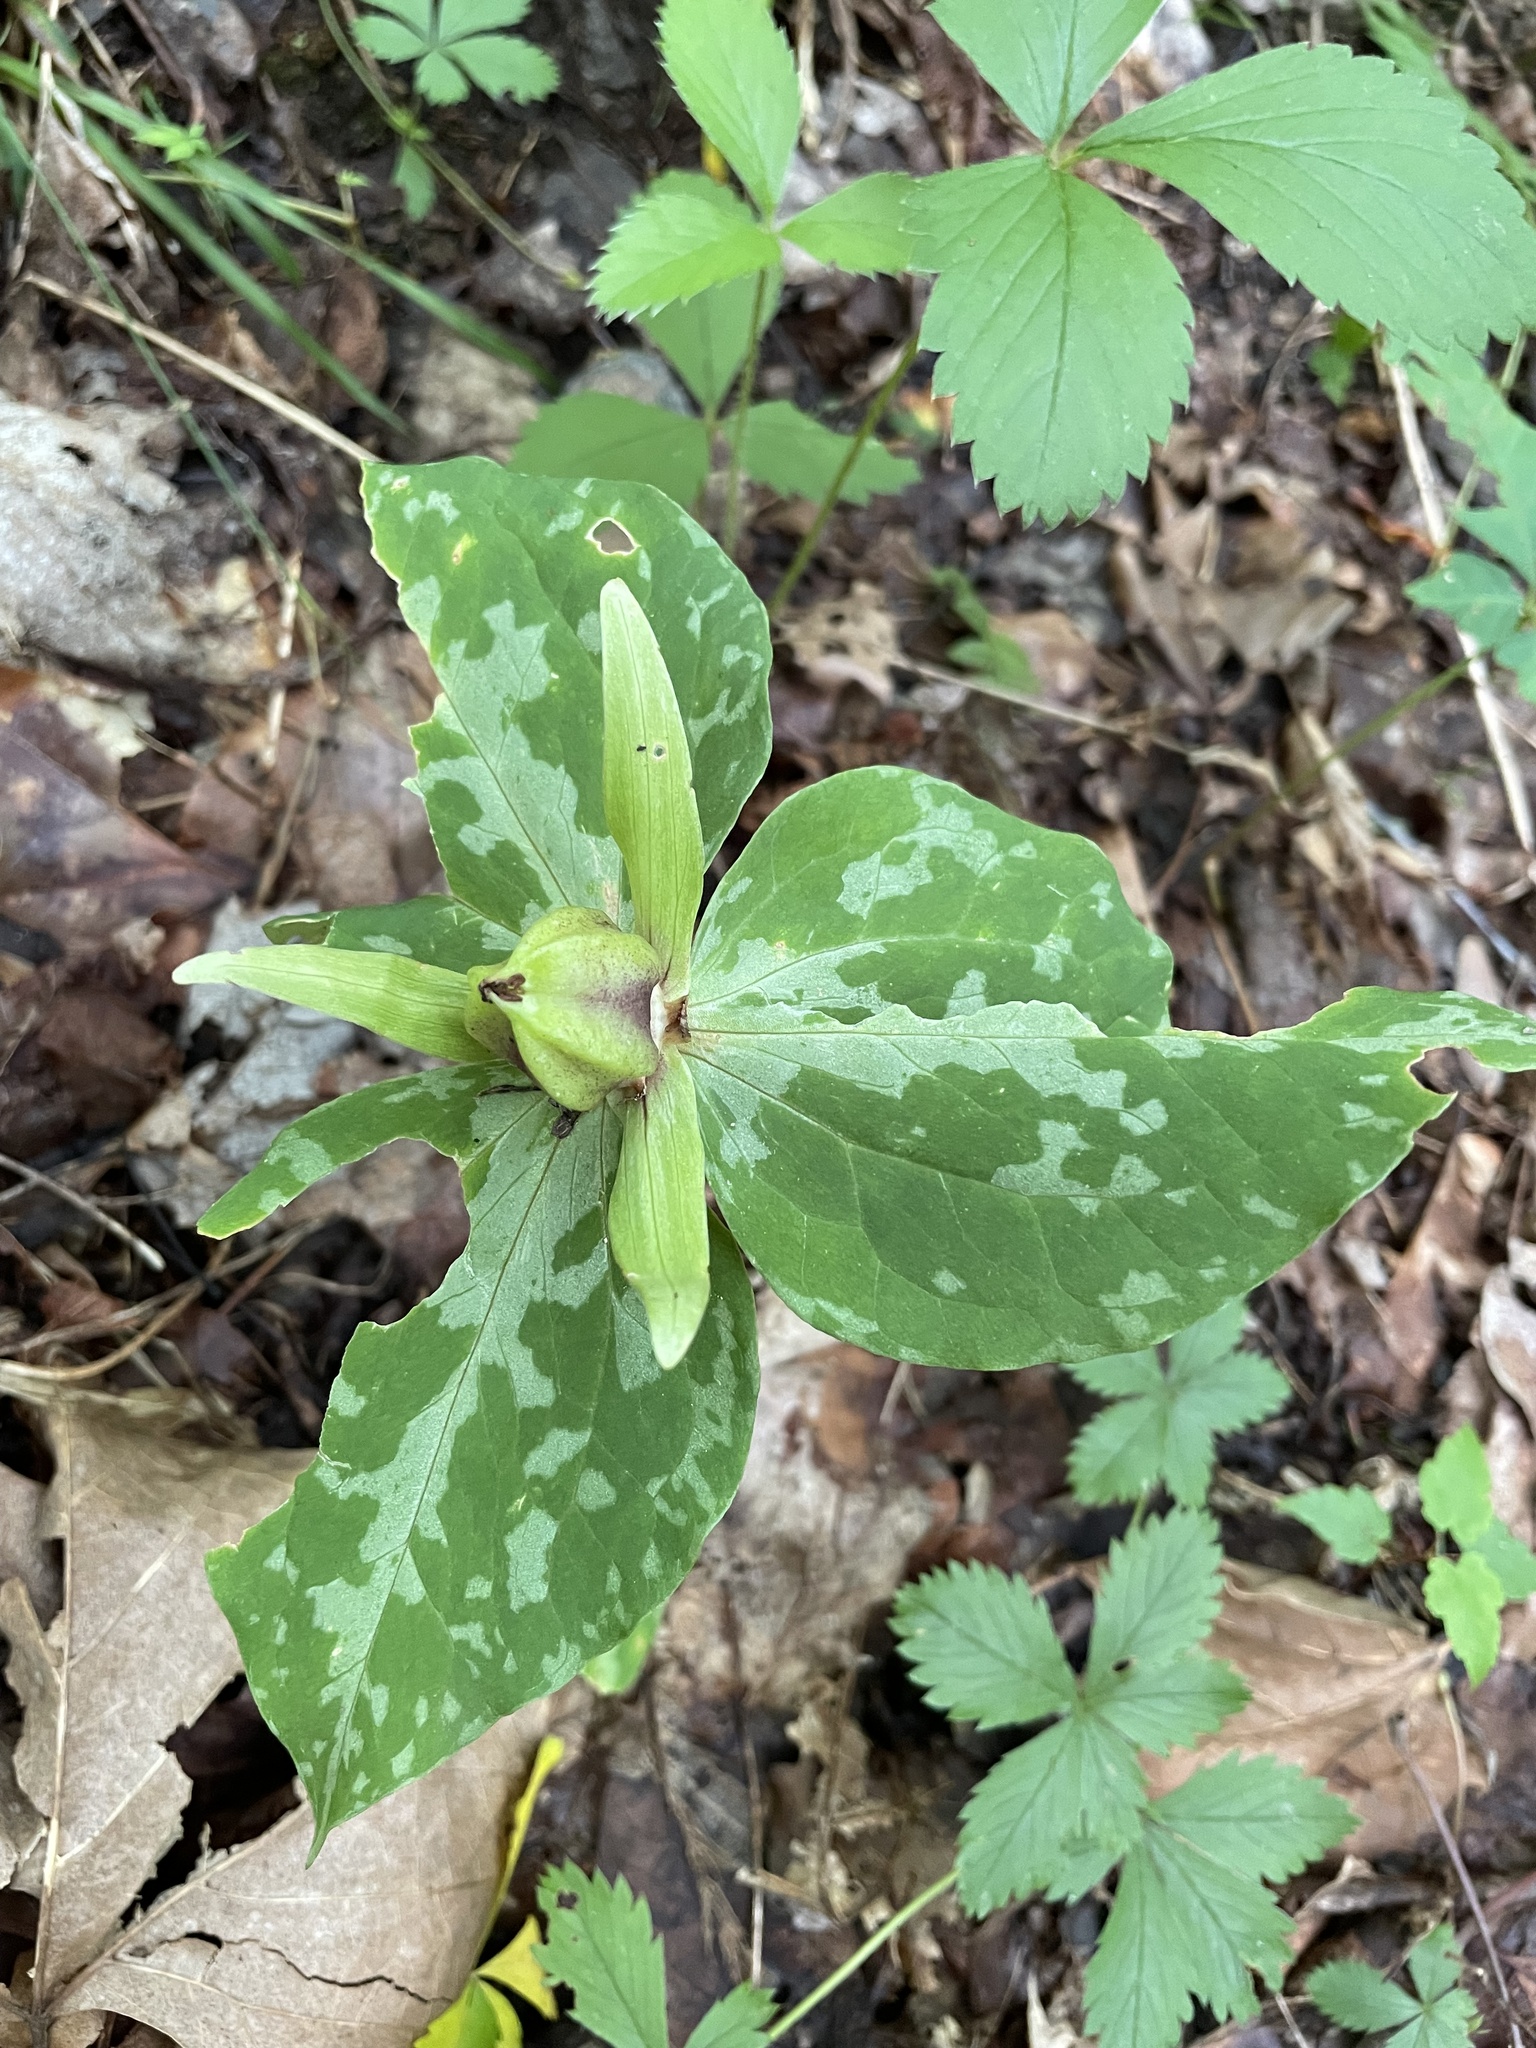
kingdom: Plantae
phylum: Tracheophyta
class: Liliopsida
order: Liliales
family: Melanthiaceae
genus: Trillium
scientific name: Trillium luteum
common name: Wax trillium
